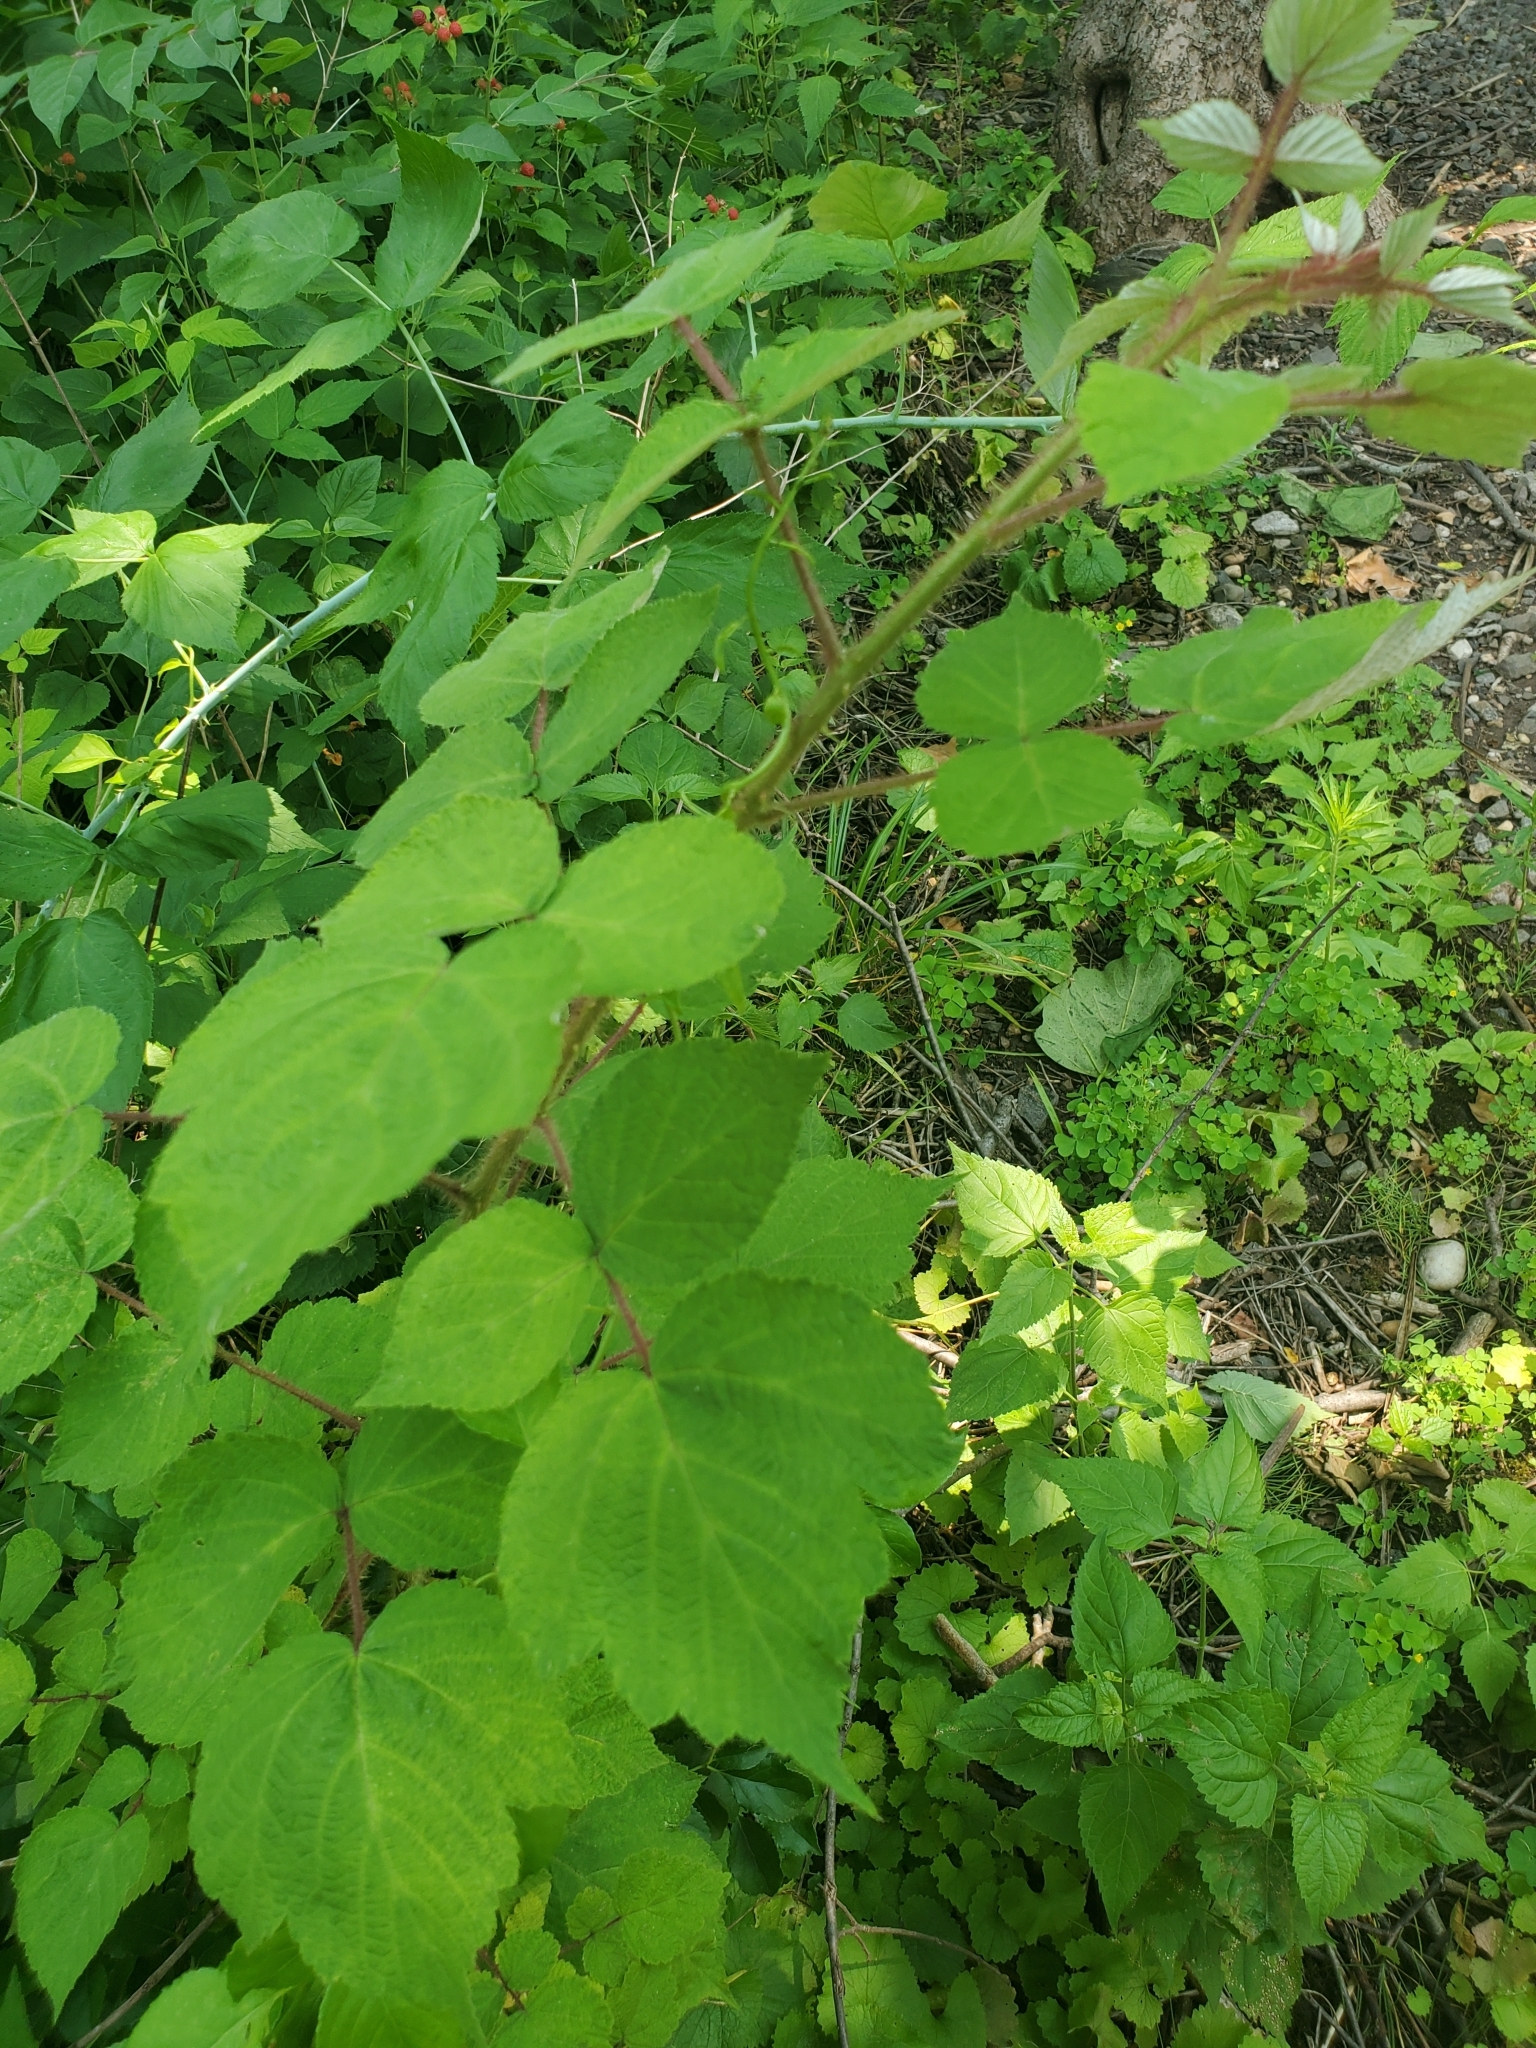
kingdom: Plantae
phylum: Tracheophyta
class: Magnoliopsida
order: Rosales
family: Rosaceae
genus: Rubus
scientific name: Rubus phoenicolasius
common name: Japanese wineberry
